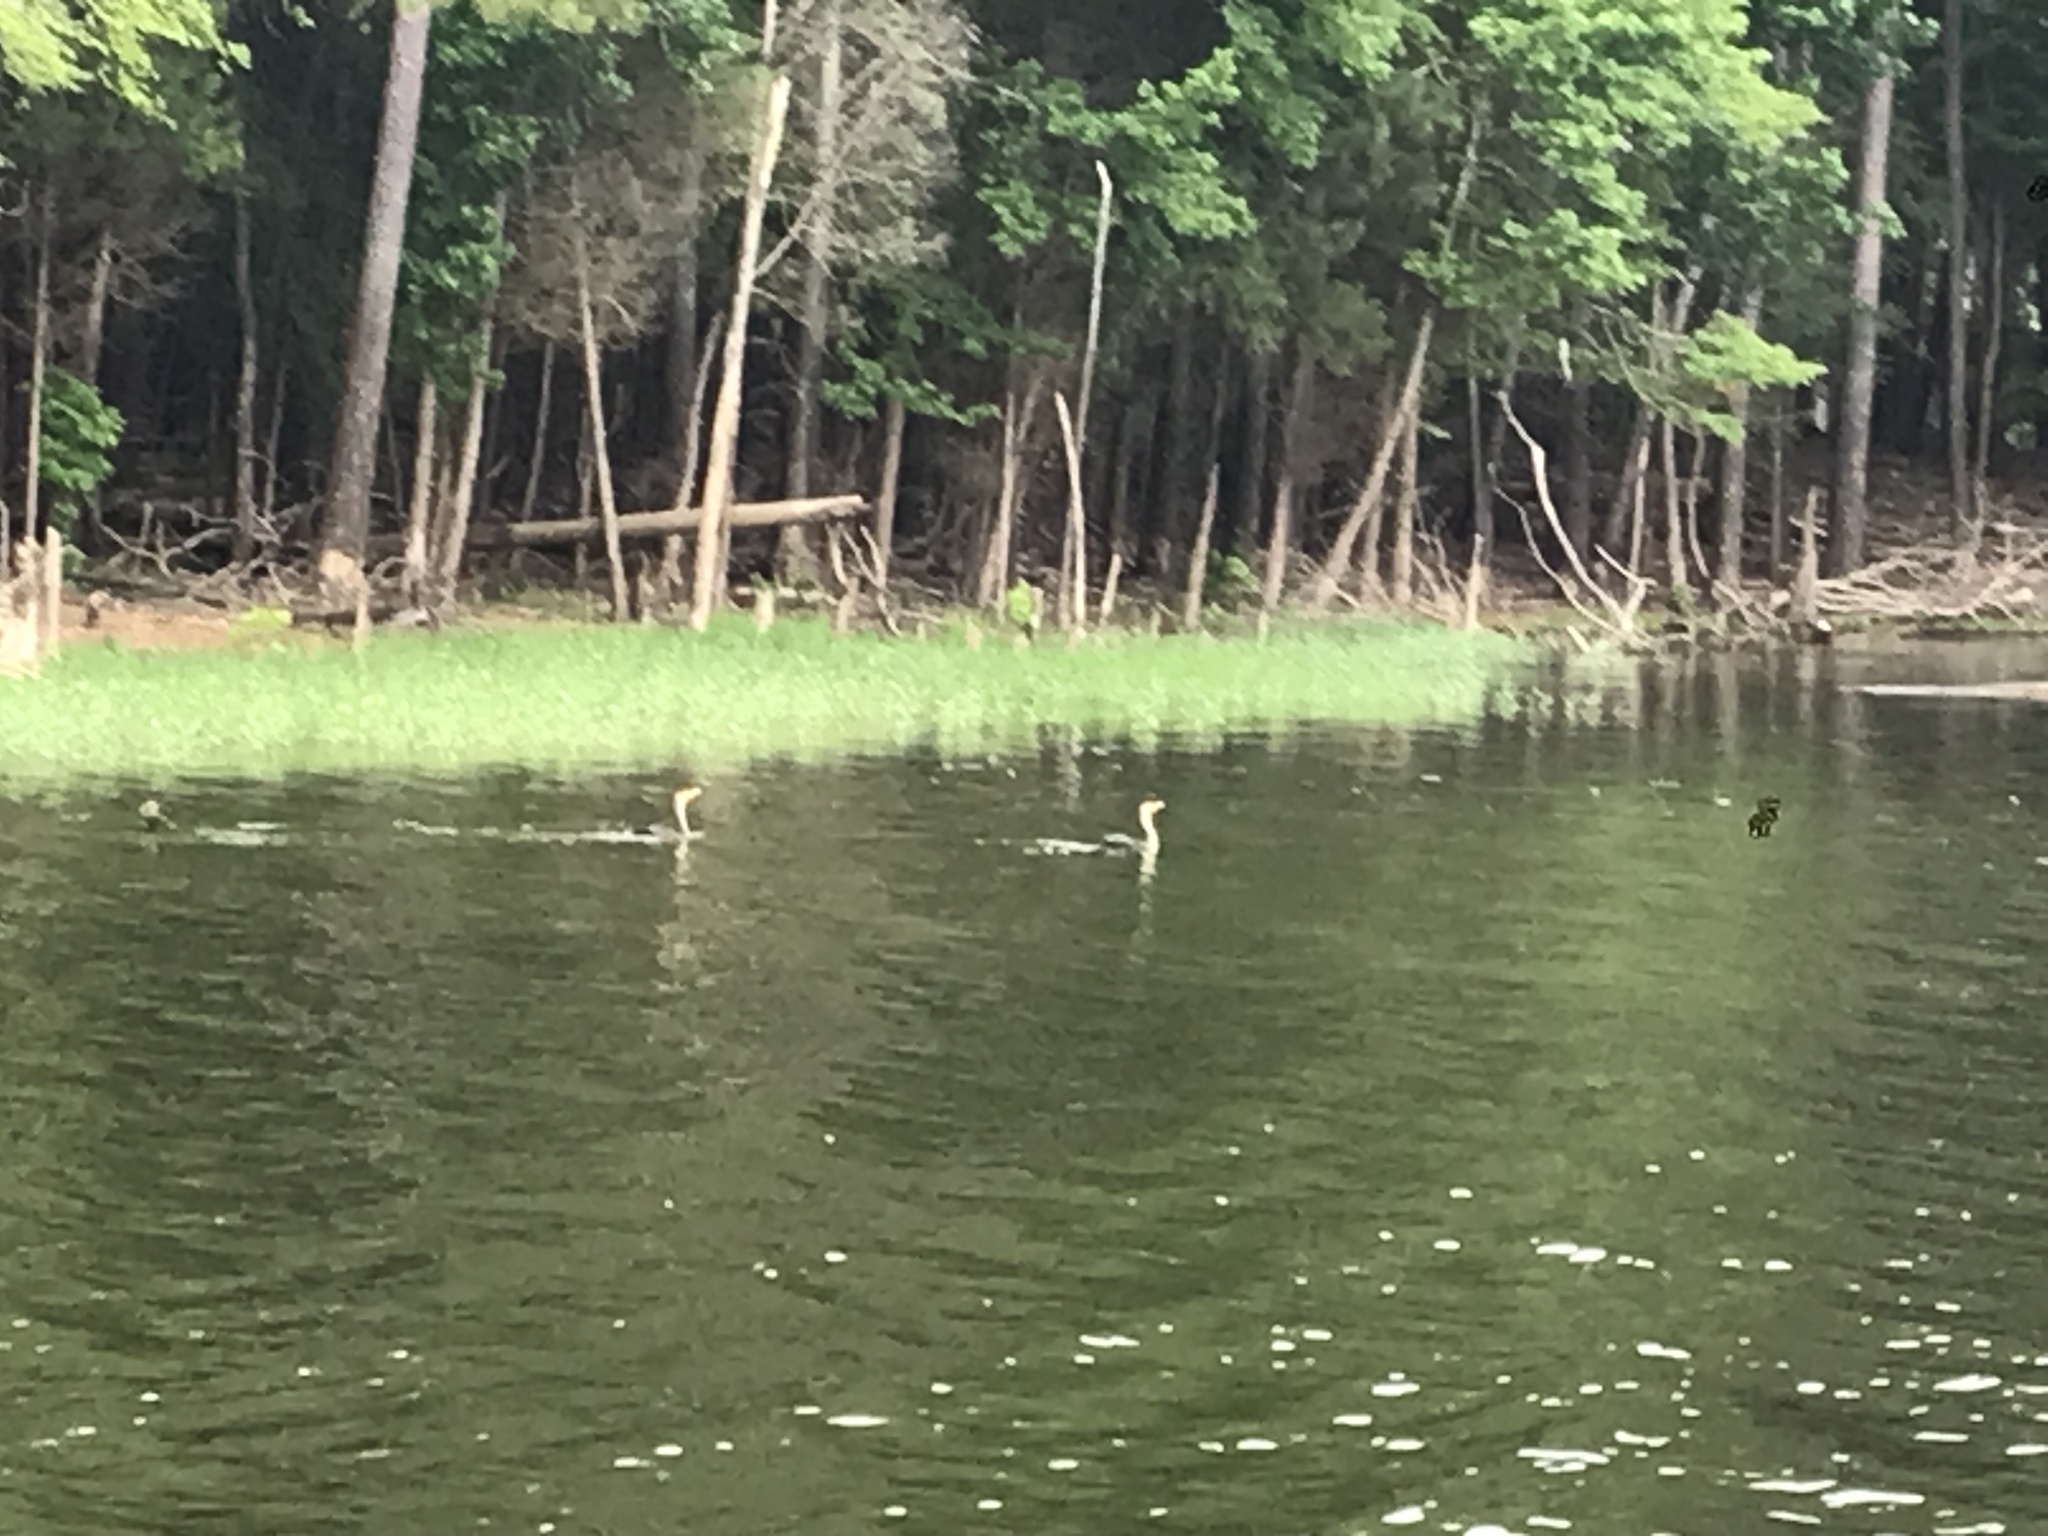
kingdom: Animalia
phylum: Chordata
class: Aves
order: Suliformes
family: Phalacrocoracidae
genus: Phalacrocorax
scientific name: Phalacrocorax auritus
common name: Double-crested cormorant
